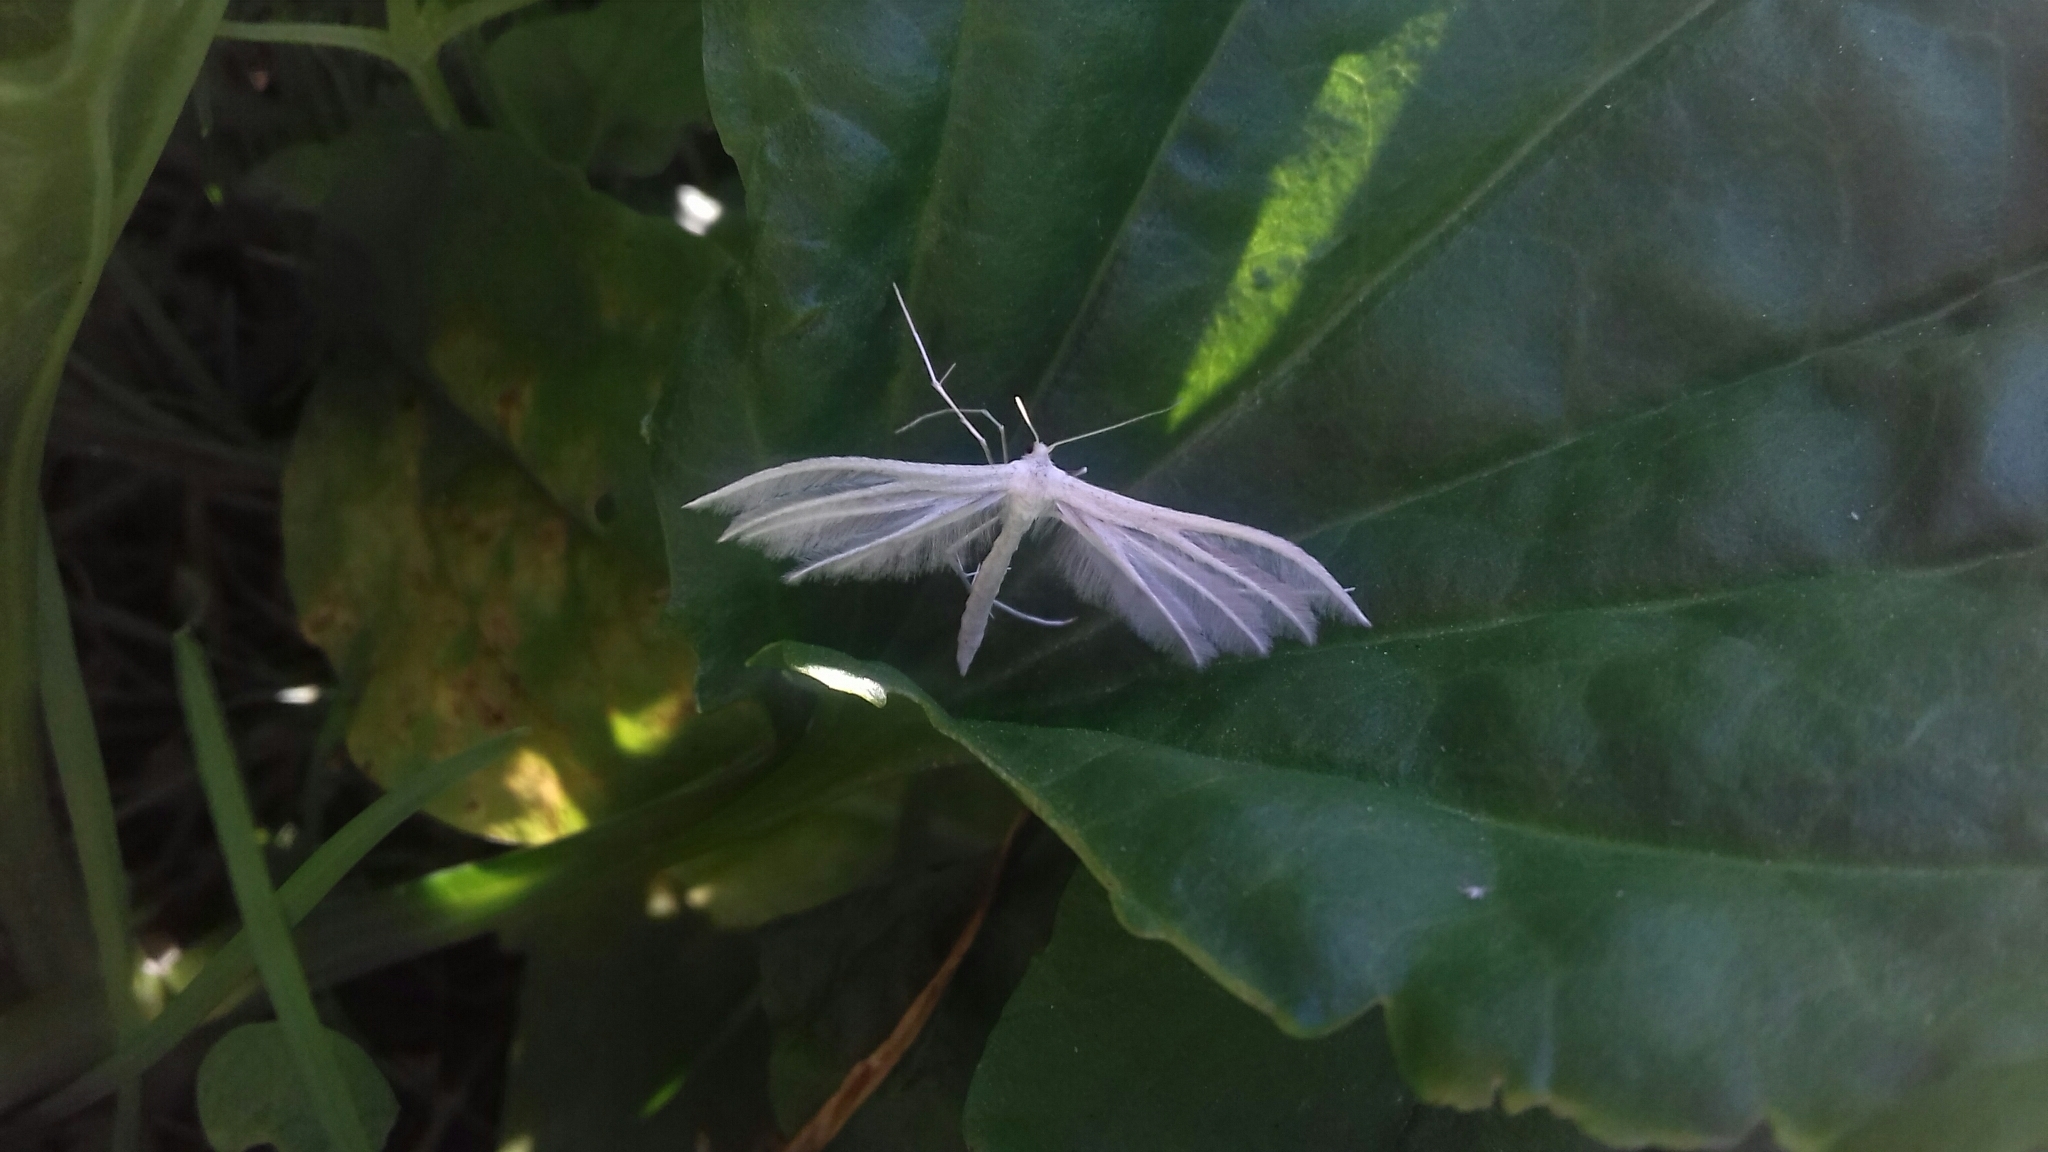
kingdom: Animalia
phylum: Arthropoda
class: Insecta
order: Lepidoptera
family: Pterophoridae
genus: Pterophorus
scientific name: Pterophorus pentadactyla
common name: White plume moth
